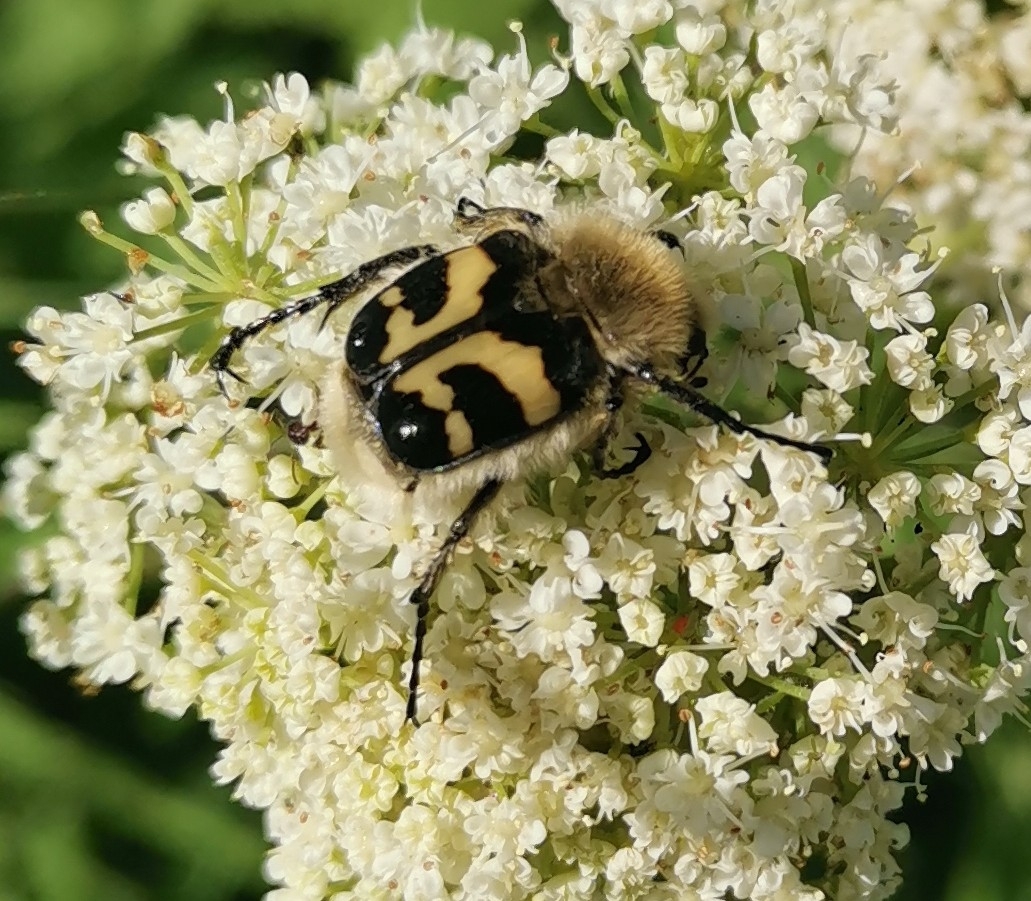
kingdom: Animalia
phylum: Arthropoda
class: Insecta
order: Coleoptera
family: Scarabaeidae
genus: Trichius
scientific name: Trichius fasciatus
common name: Bee beetle
